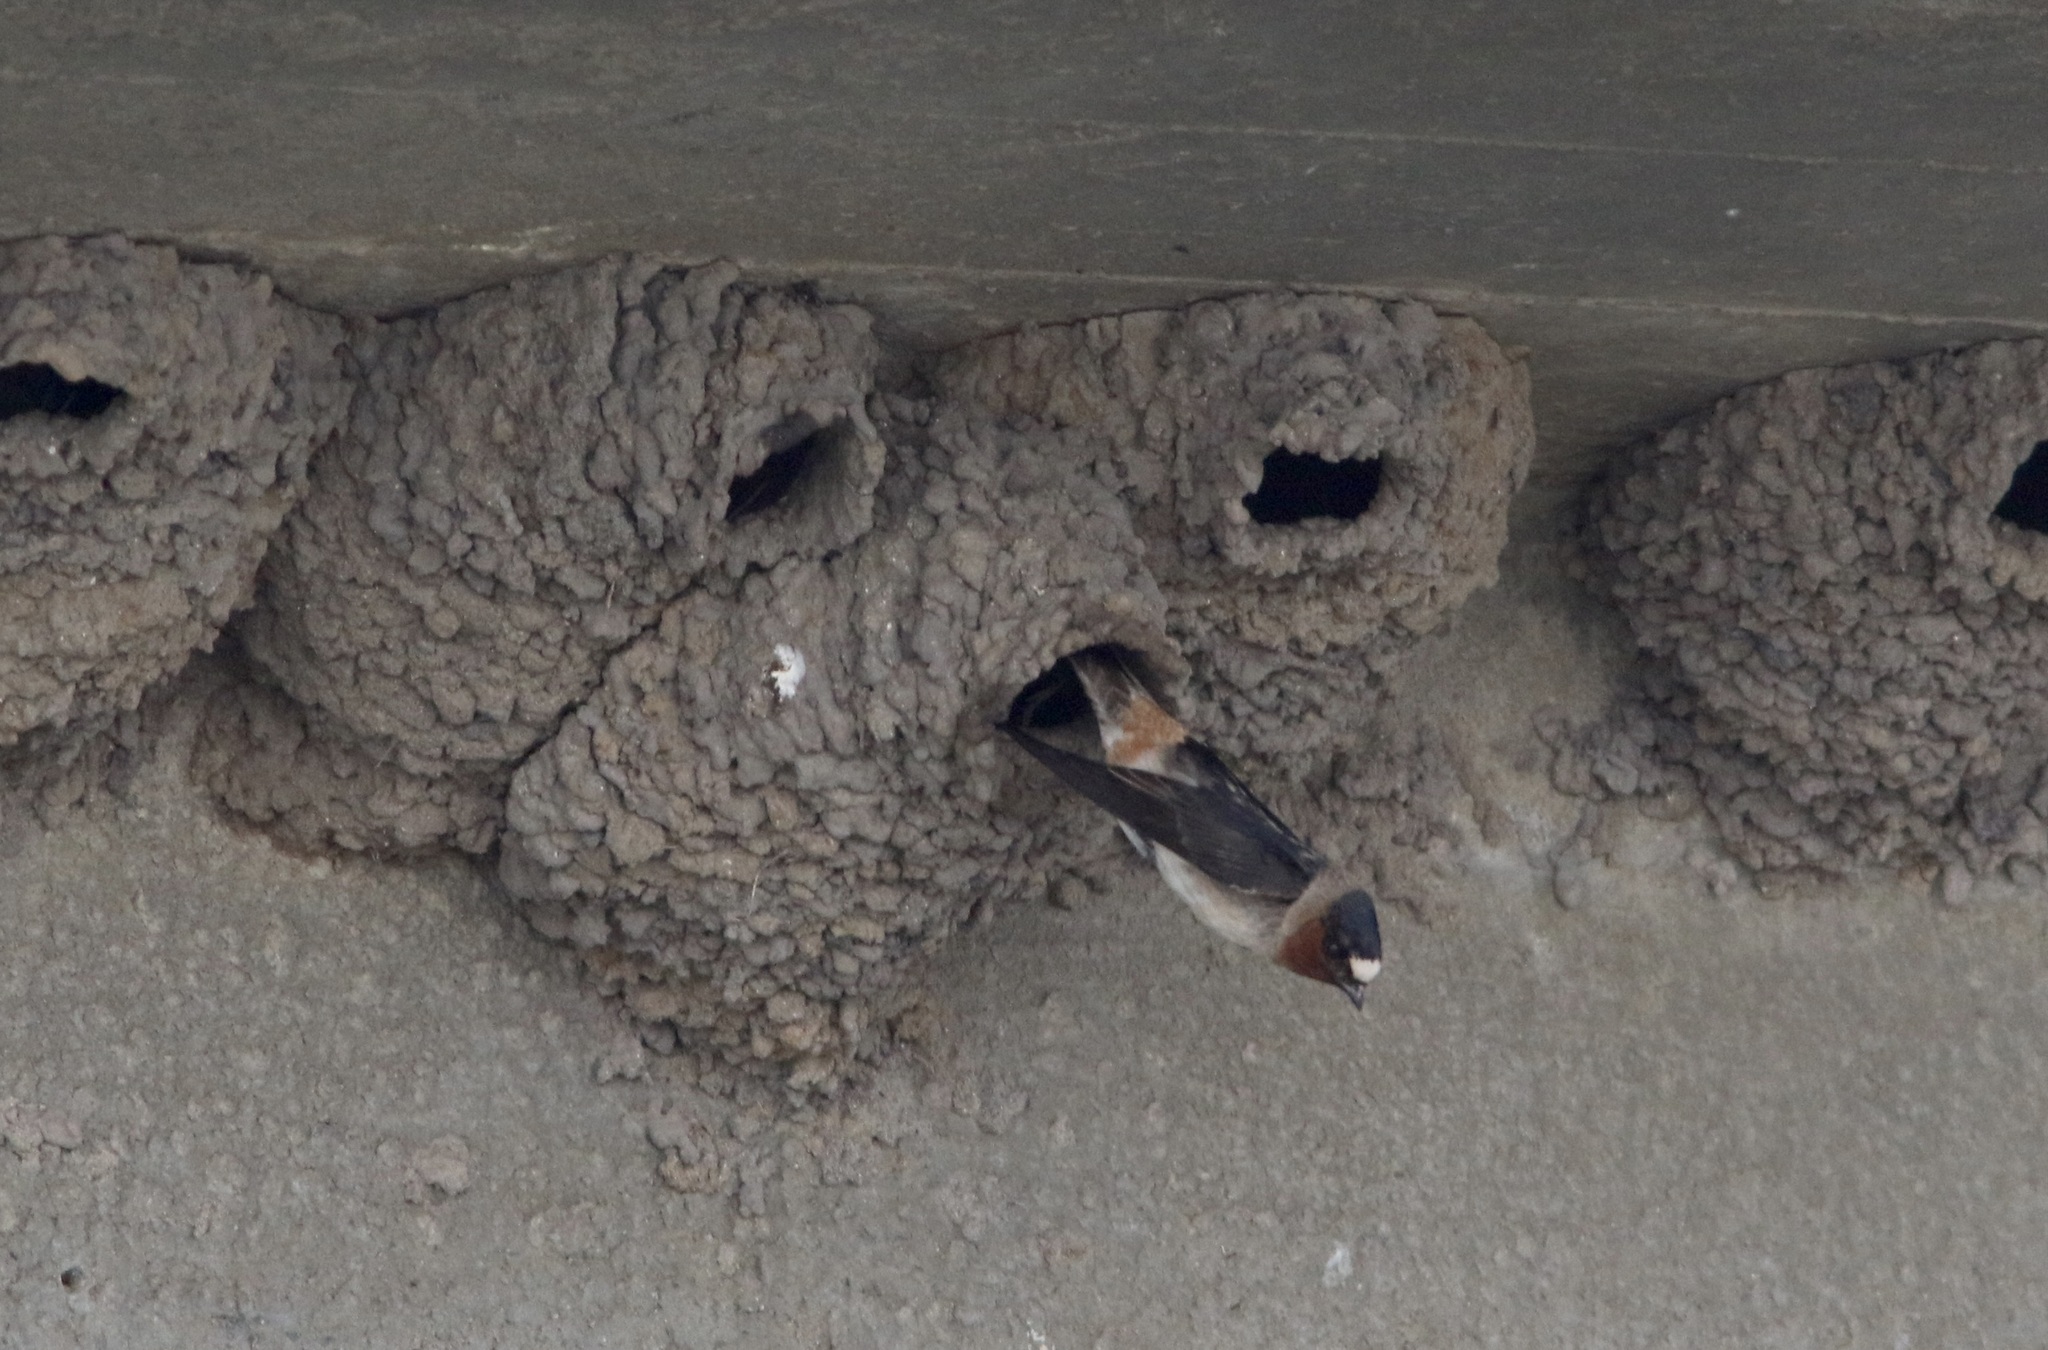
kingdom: Animalia
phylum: Chordata
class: Aves
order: Passeriformes
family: Hirundinidae
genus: Petrochelidon
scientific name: Petrochelidon pyrrhonota
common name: American cliff swallow
